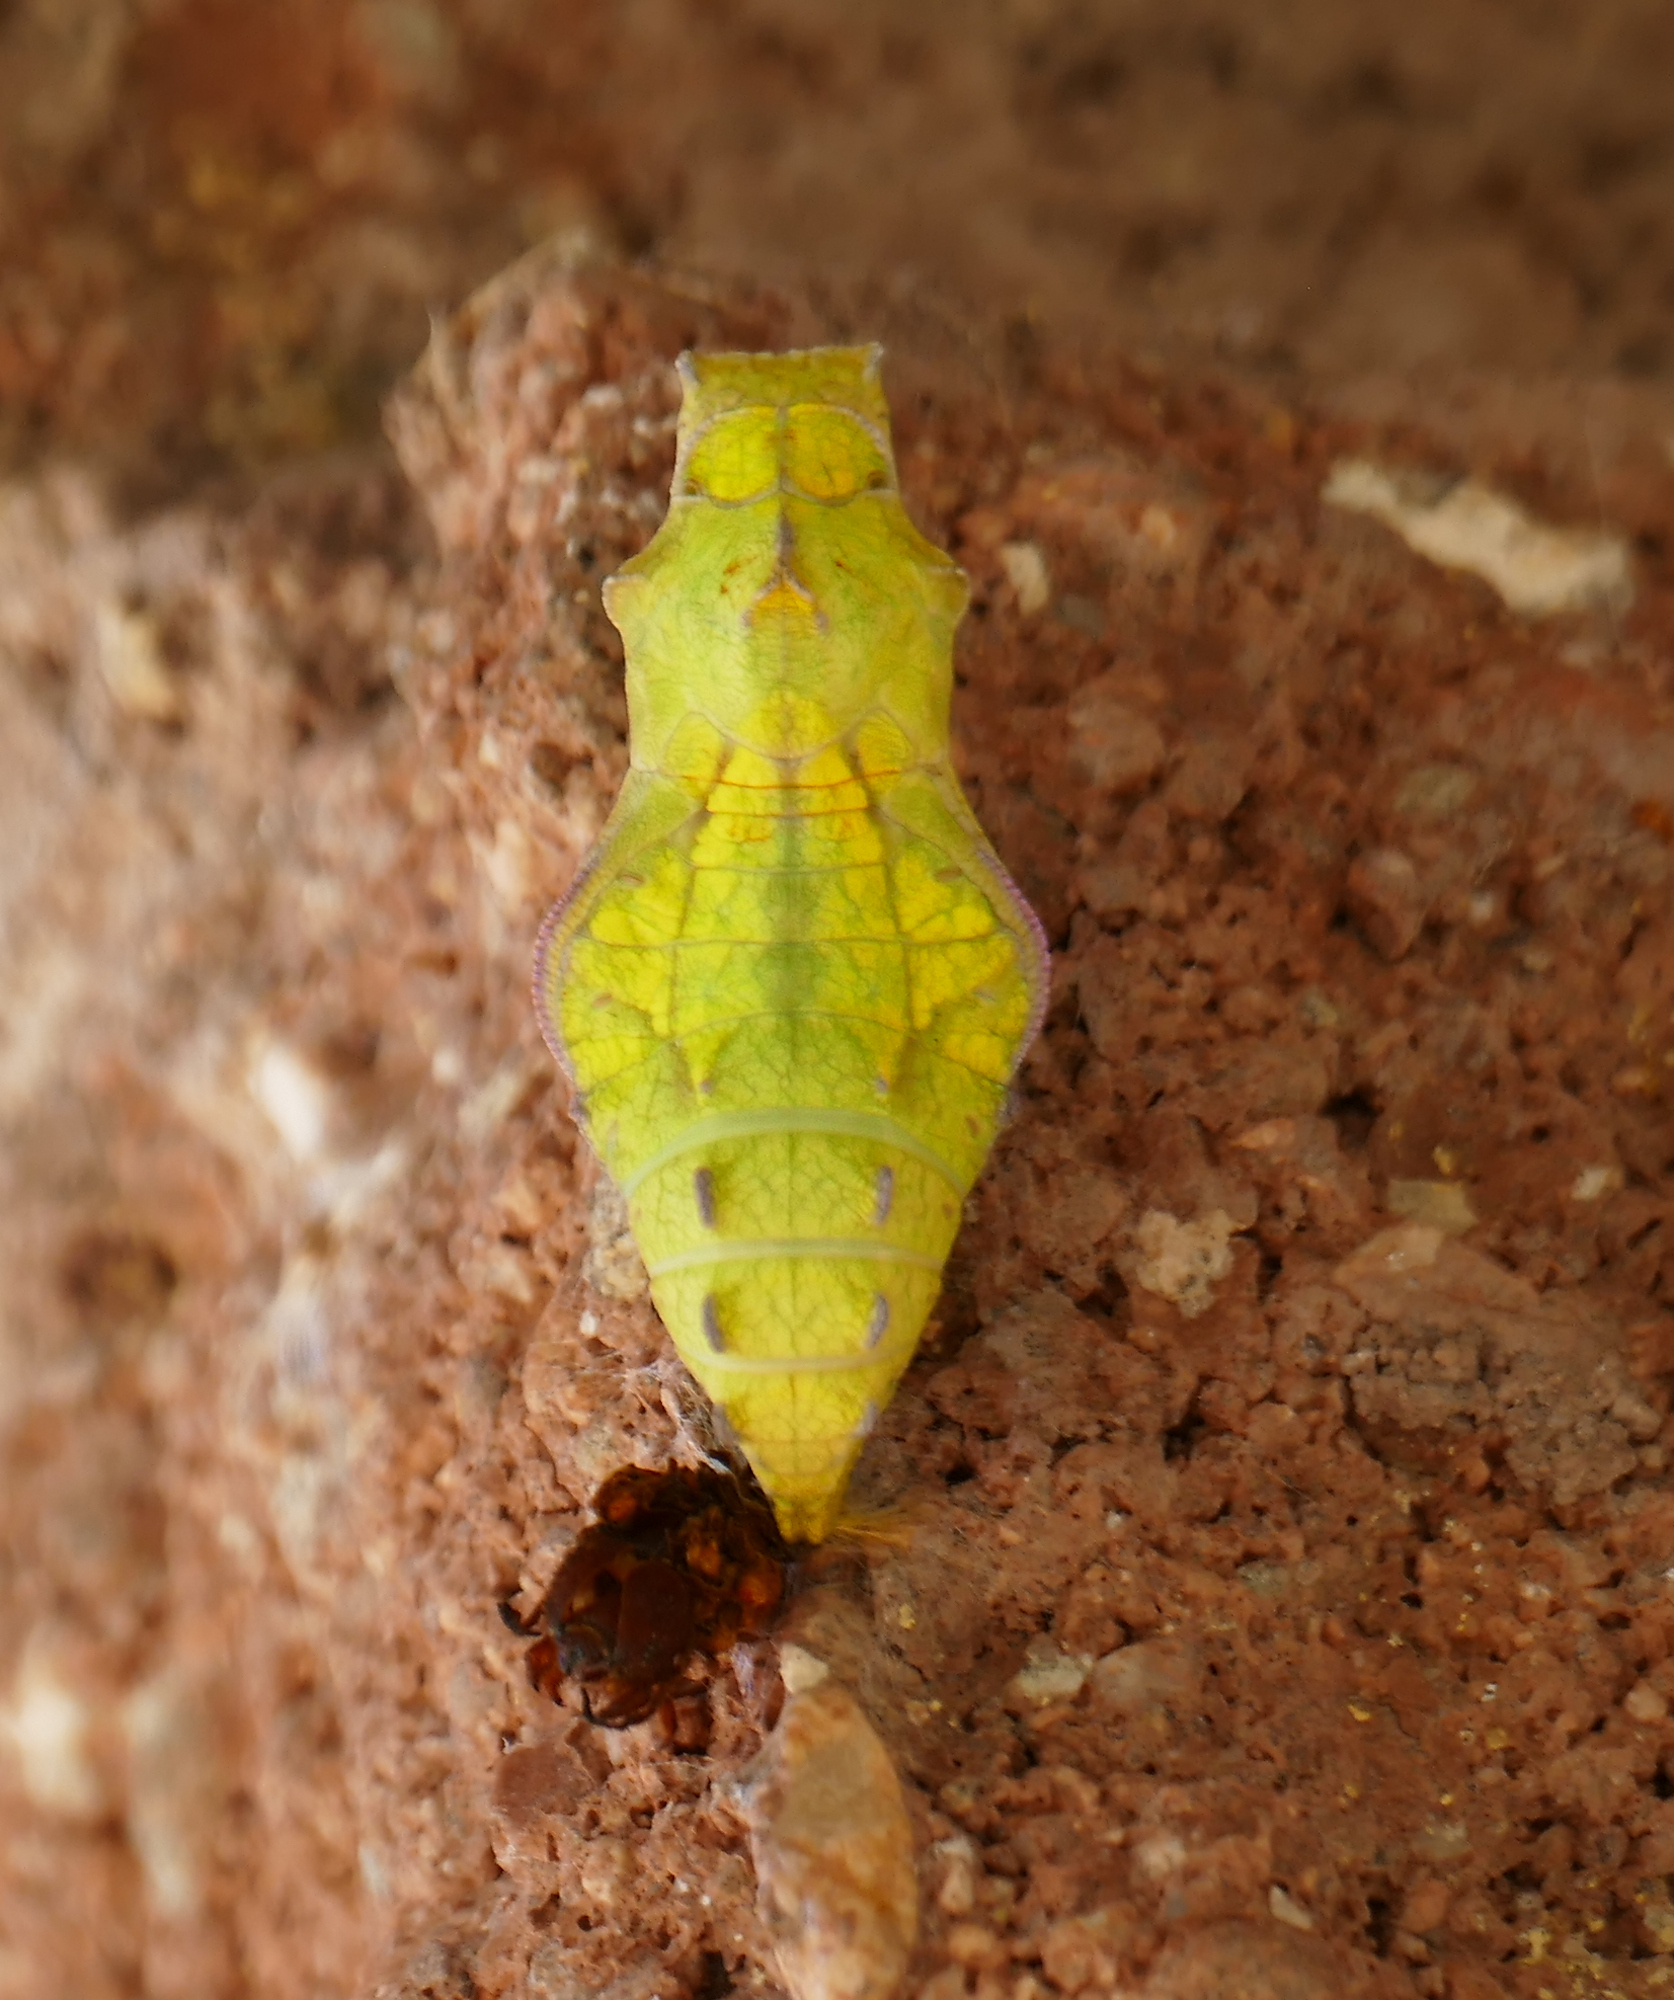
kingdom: Animalia
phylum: Arthropoda
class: Insecta
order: Lepidoptera
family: Papilionidae
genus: Battus
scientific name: Battus philenor
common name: Pipevine swallowtail
